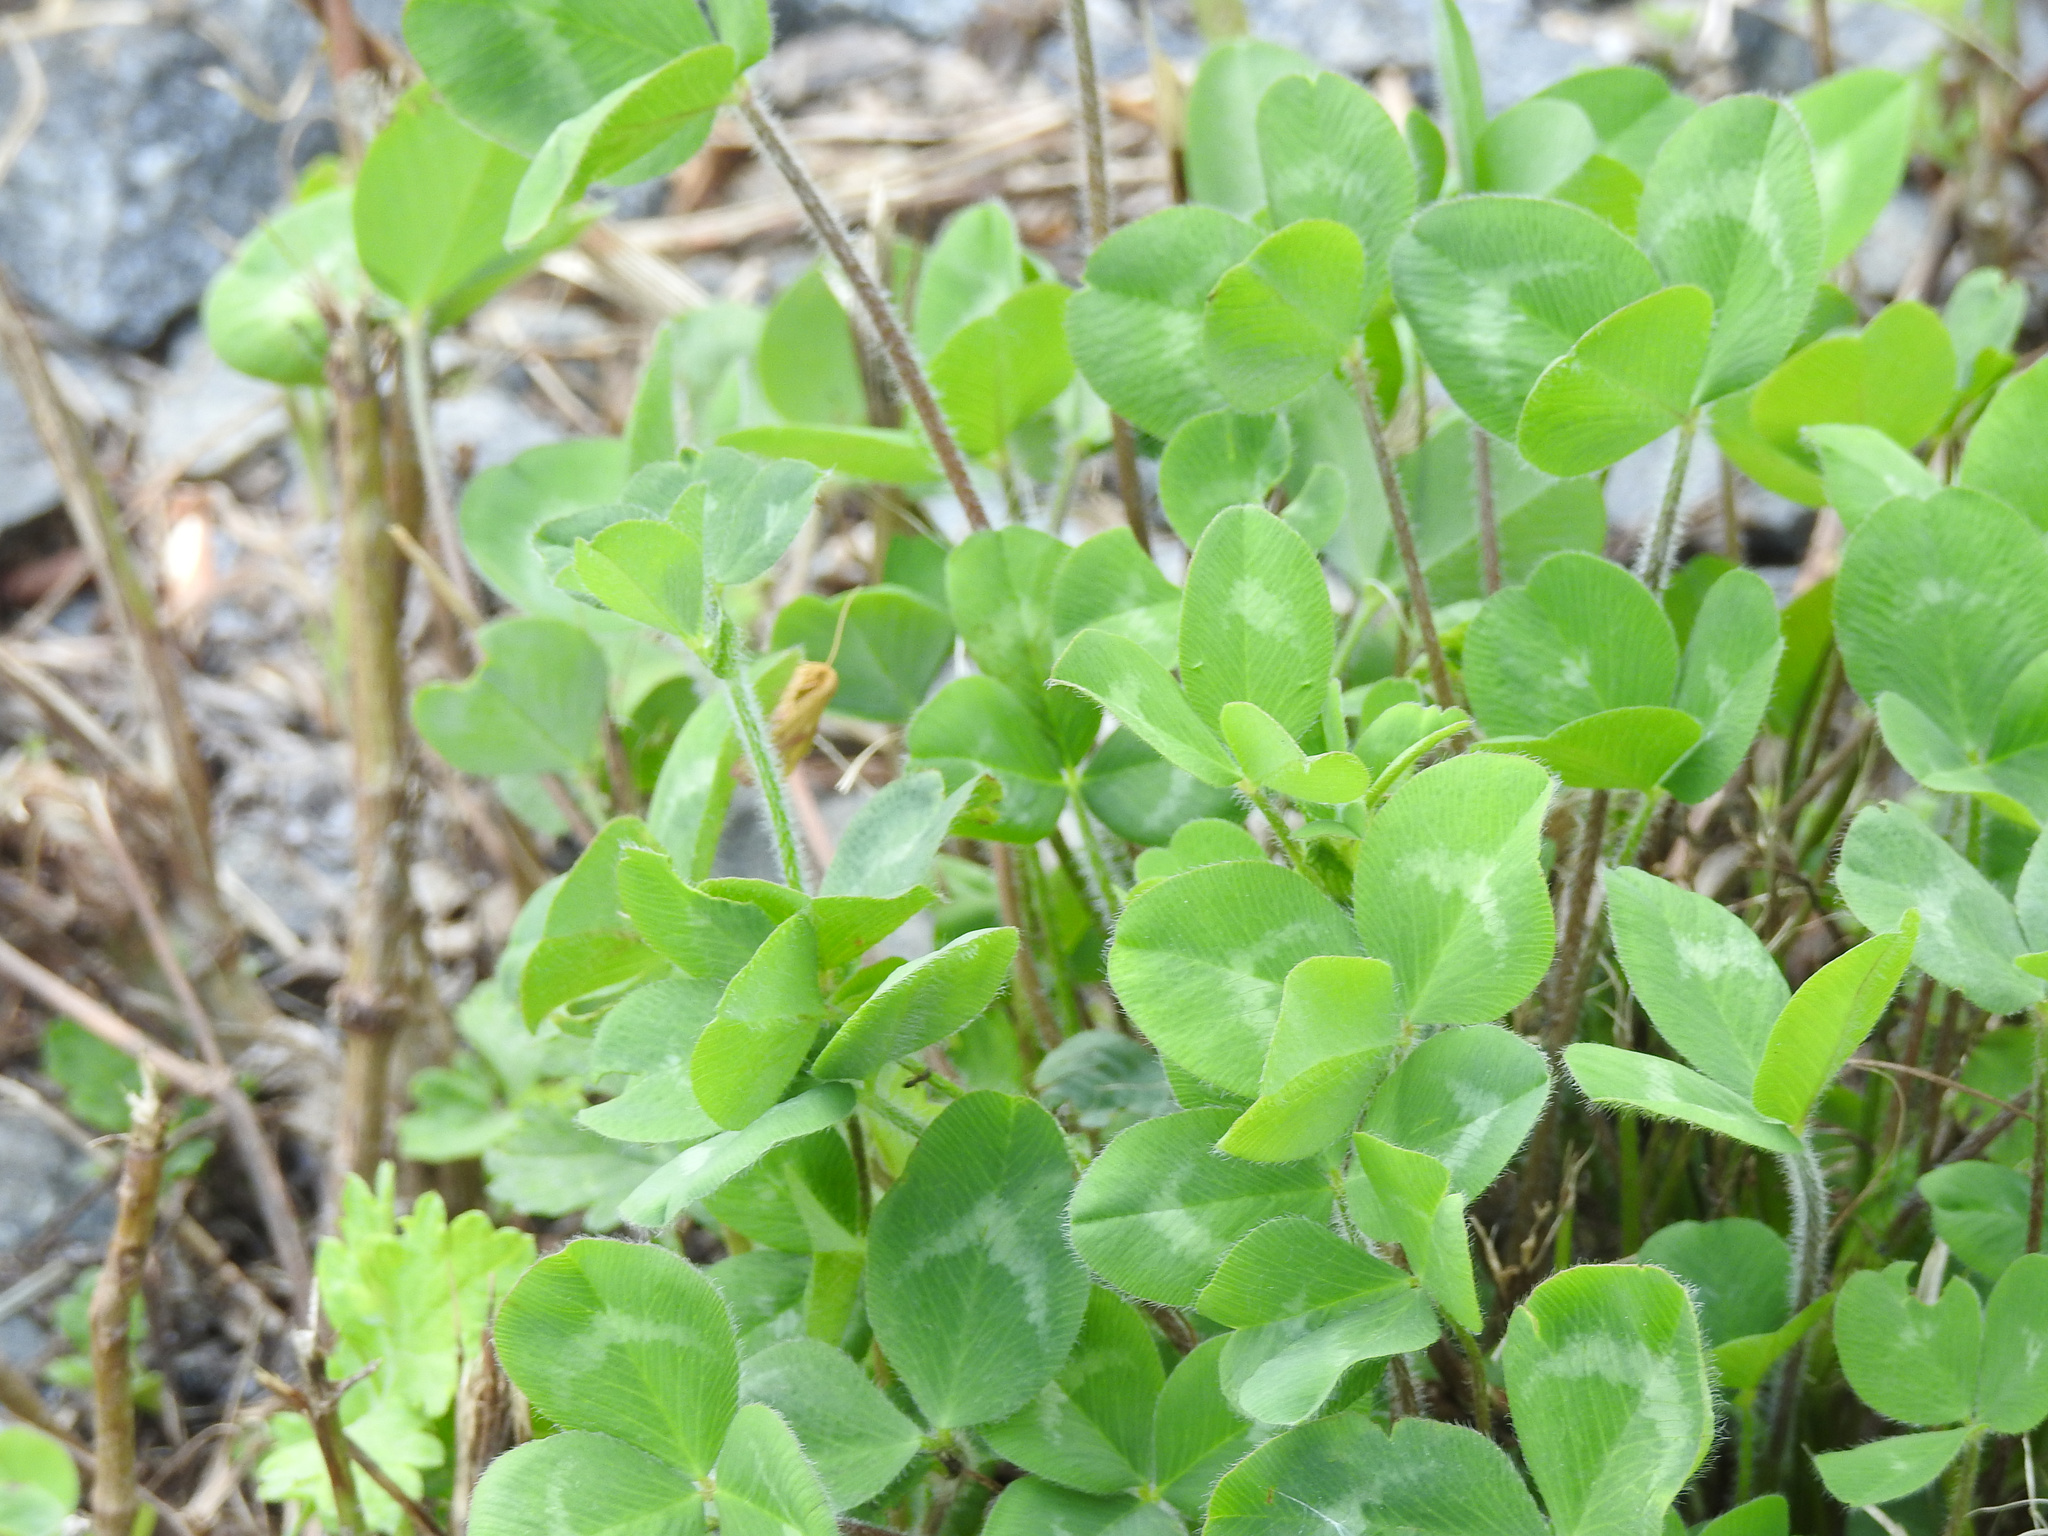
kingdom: Plantae
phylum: Tracheophyta
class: Magnoliopsida
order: Fabales
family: Fabaceae
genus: Trifolium
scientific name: Trifolium pratense
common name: Red clover
